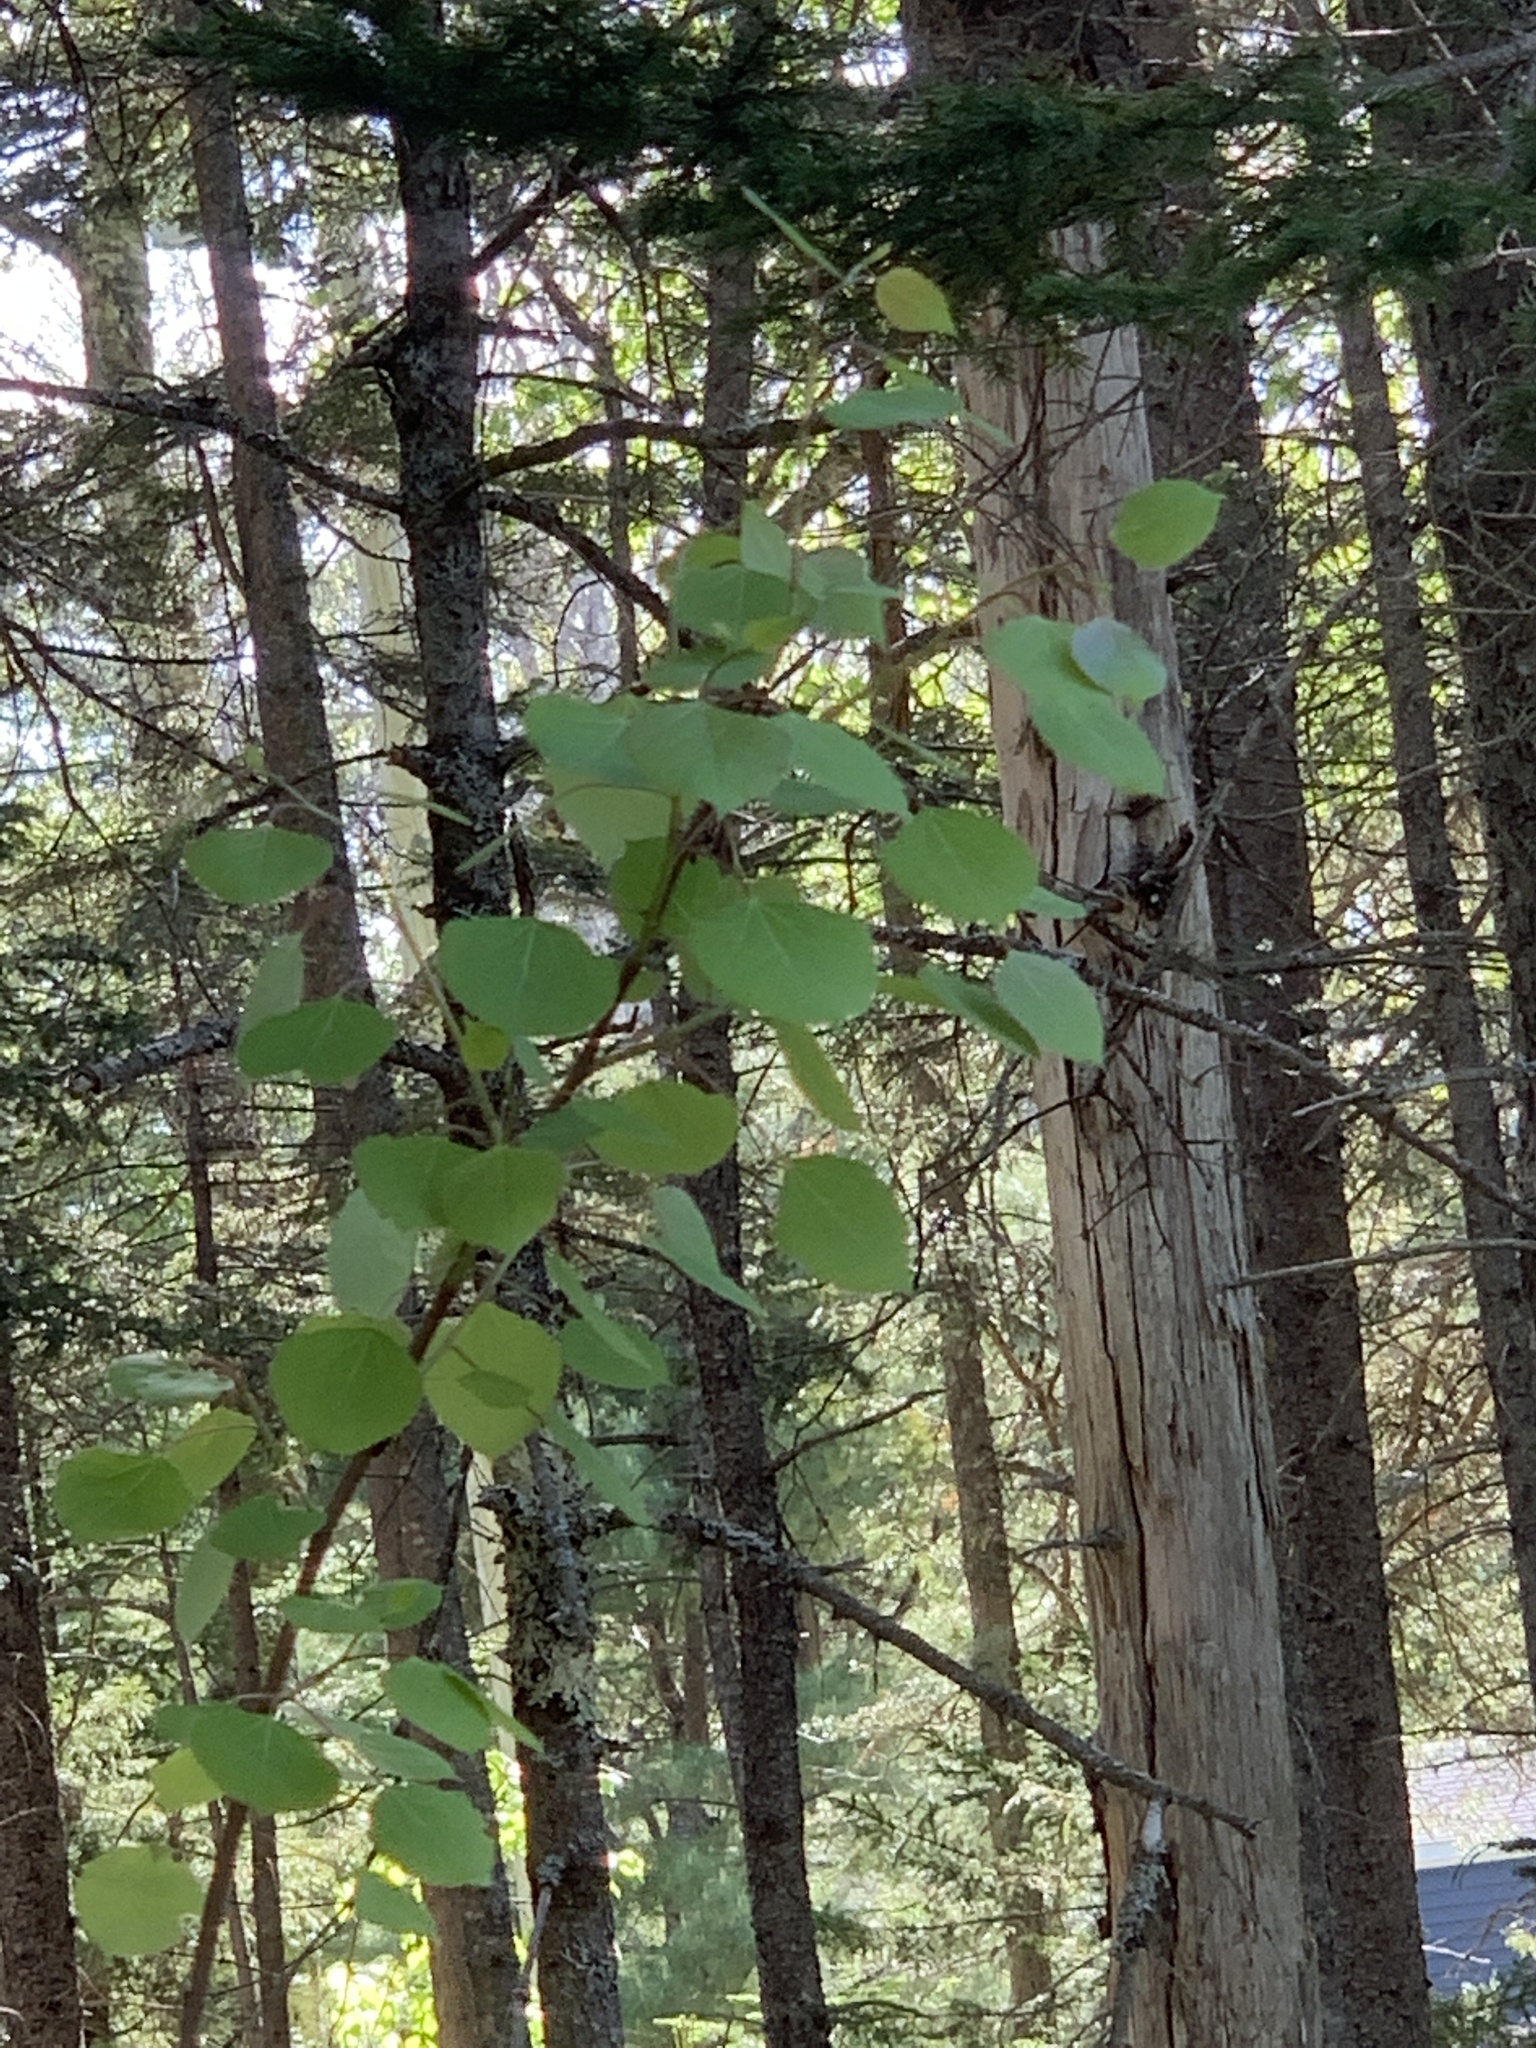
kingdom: Plantae
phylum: Tracheophyta
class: Magnoliopsida
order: Malpighiales
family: Salicaceae
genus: Populus
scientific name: Populus tremuloides
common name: Quaking aspen
